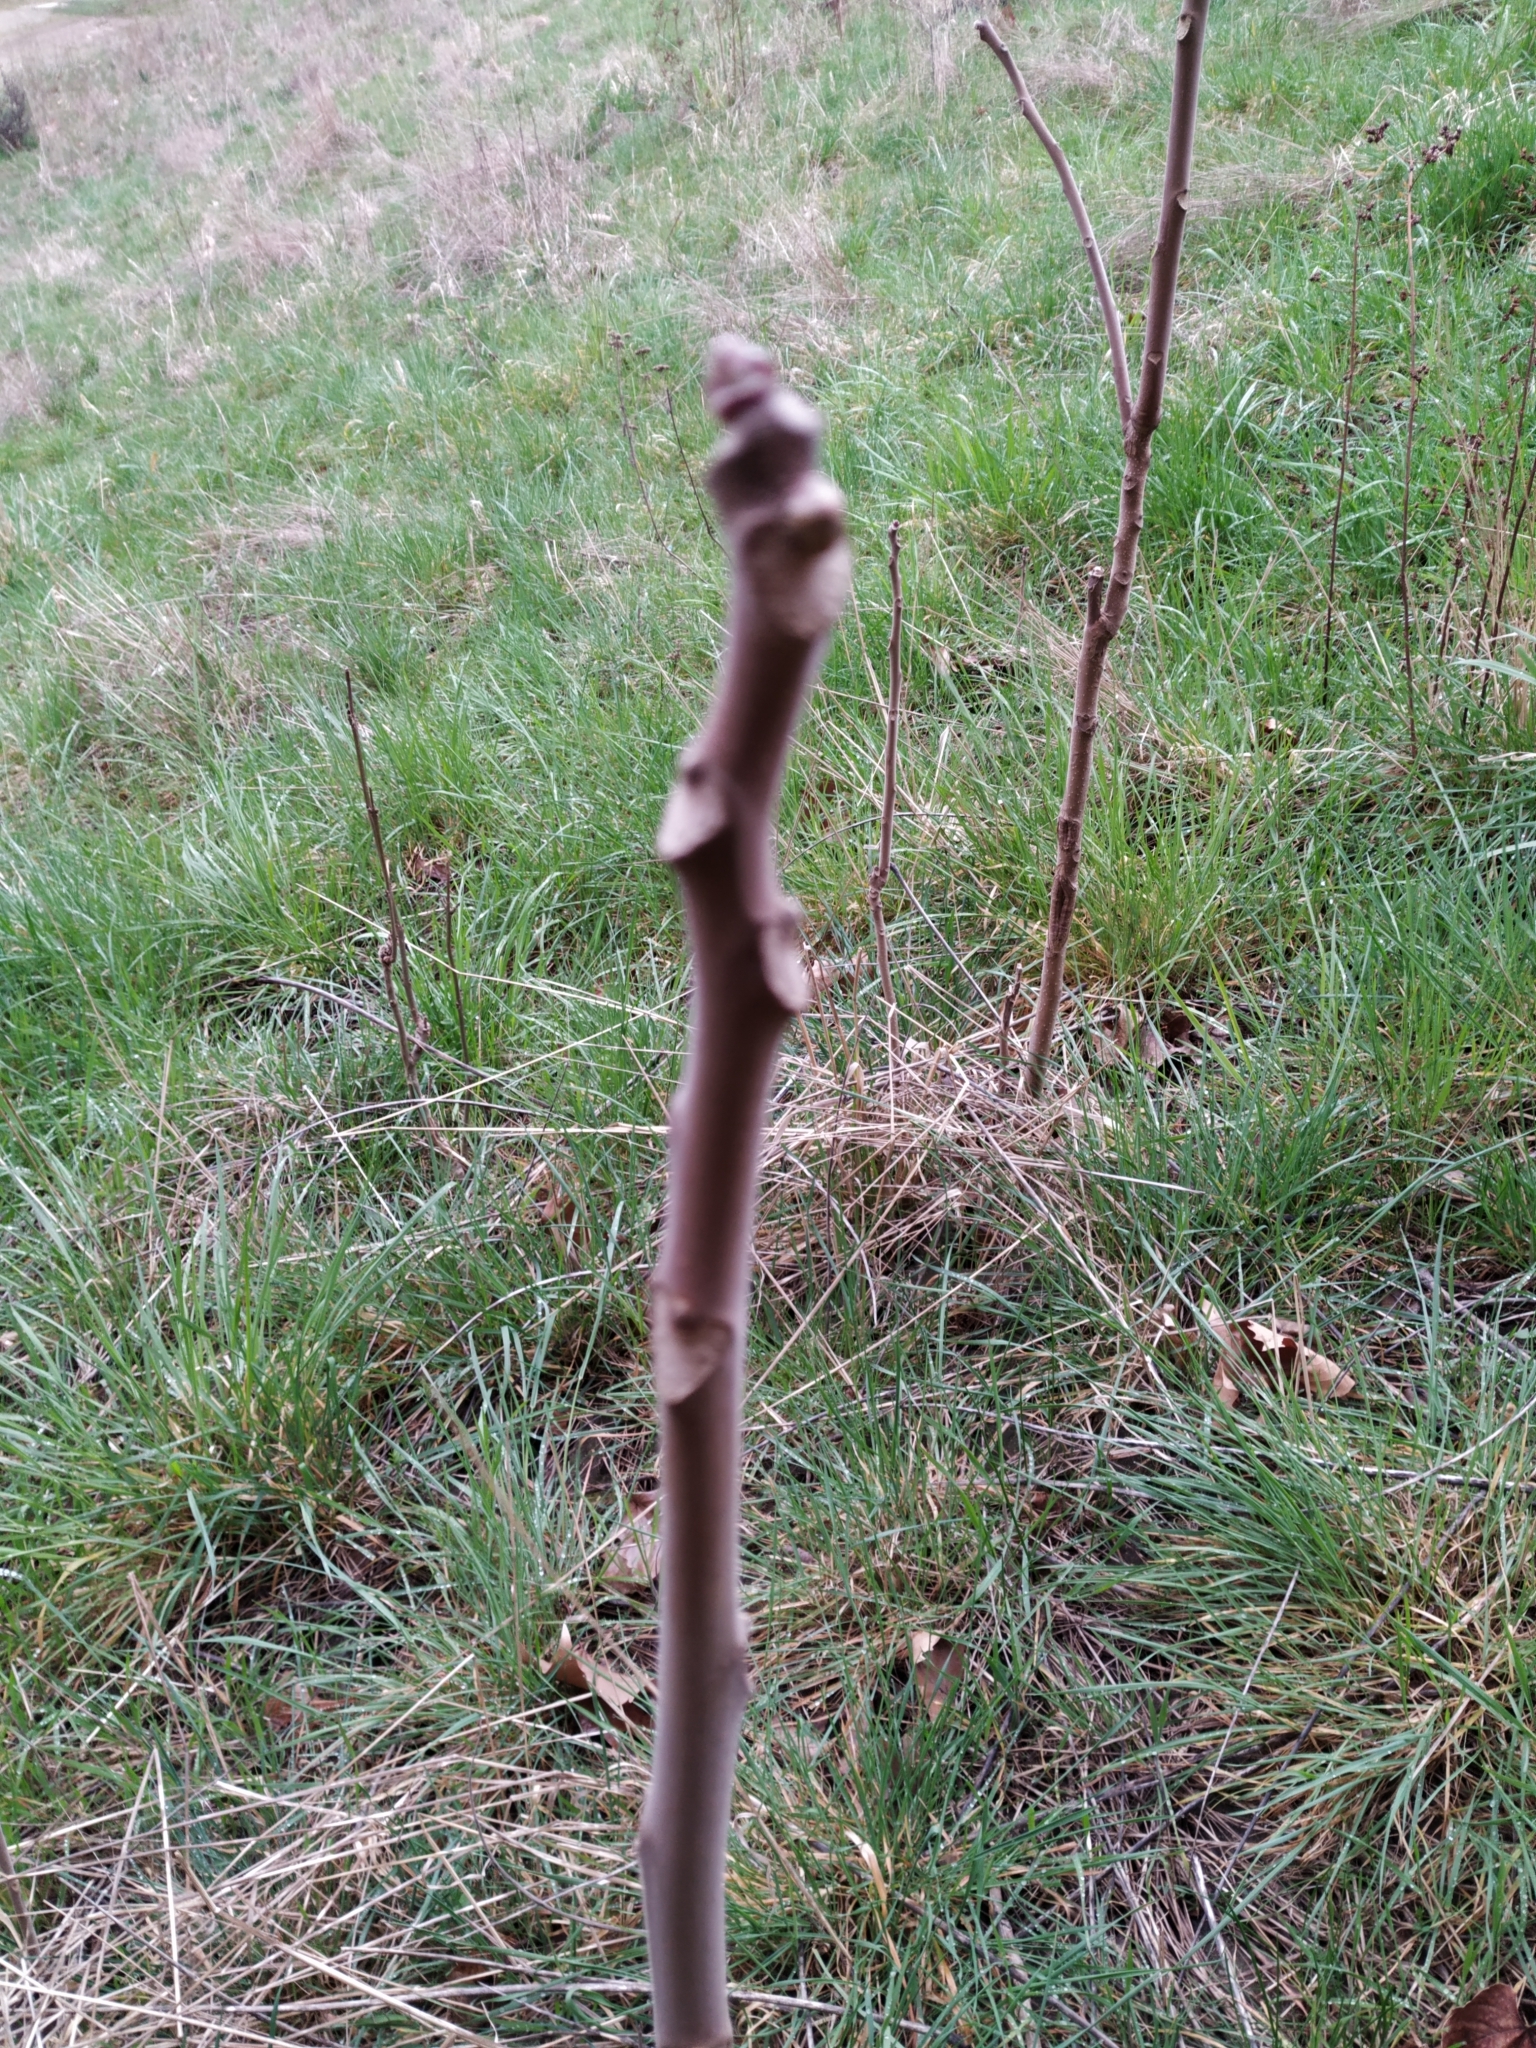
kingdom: Plantae
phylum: Tracheophyta
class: Magnoliopsida
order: Sapindales
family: Simaroubaceae
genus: Ailanthus
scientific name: Ailanthus altissima
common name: Tree-of-heaven
